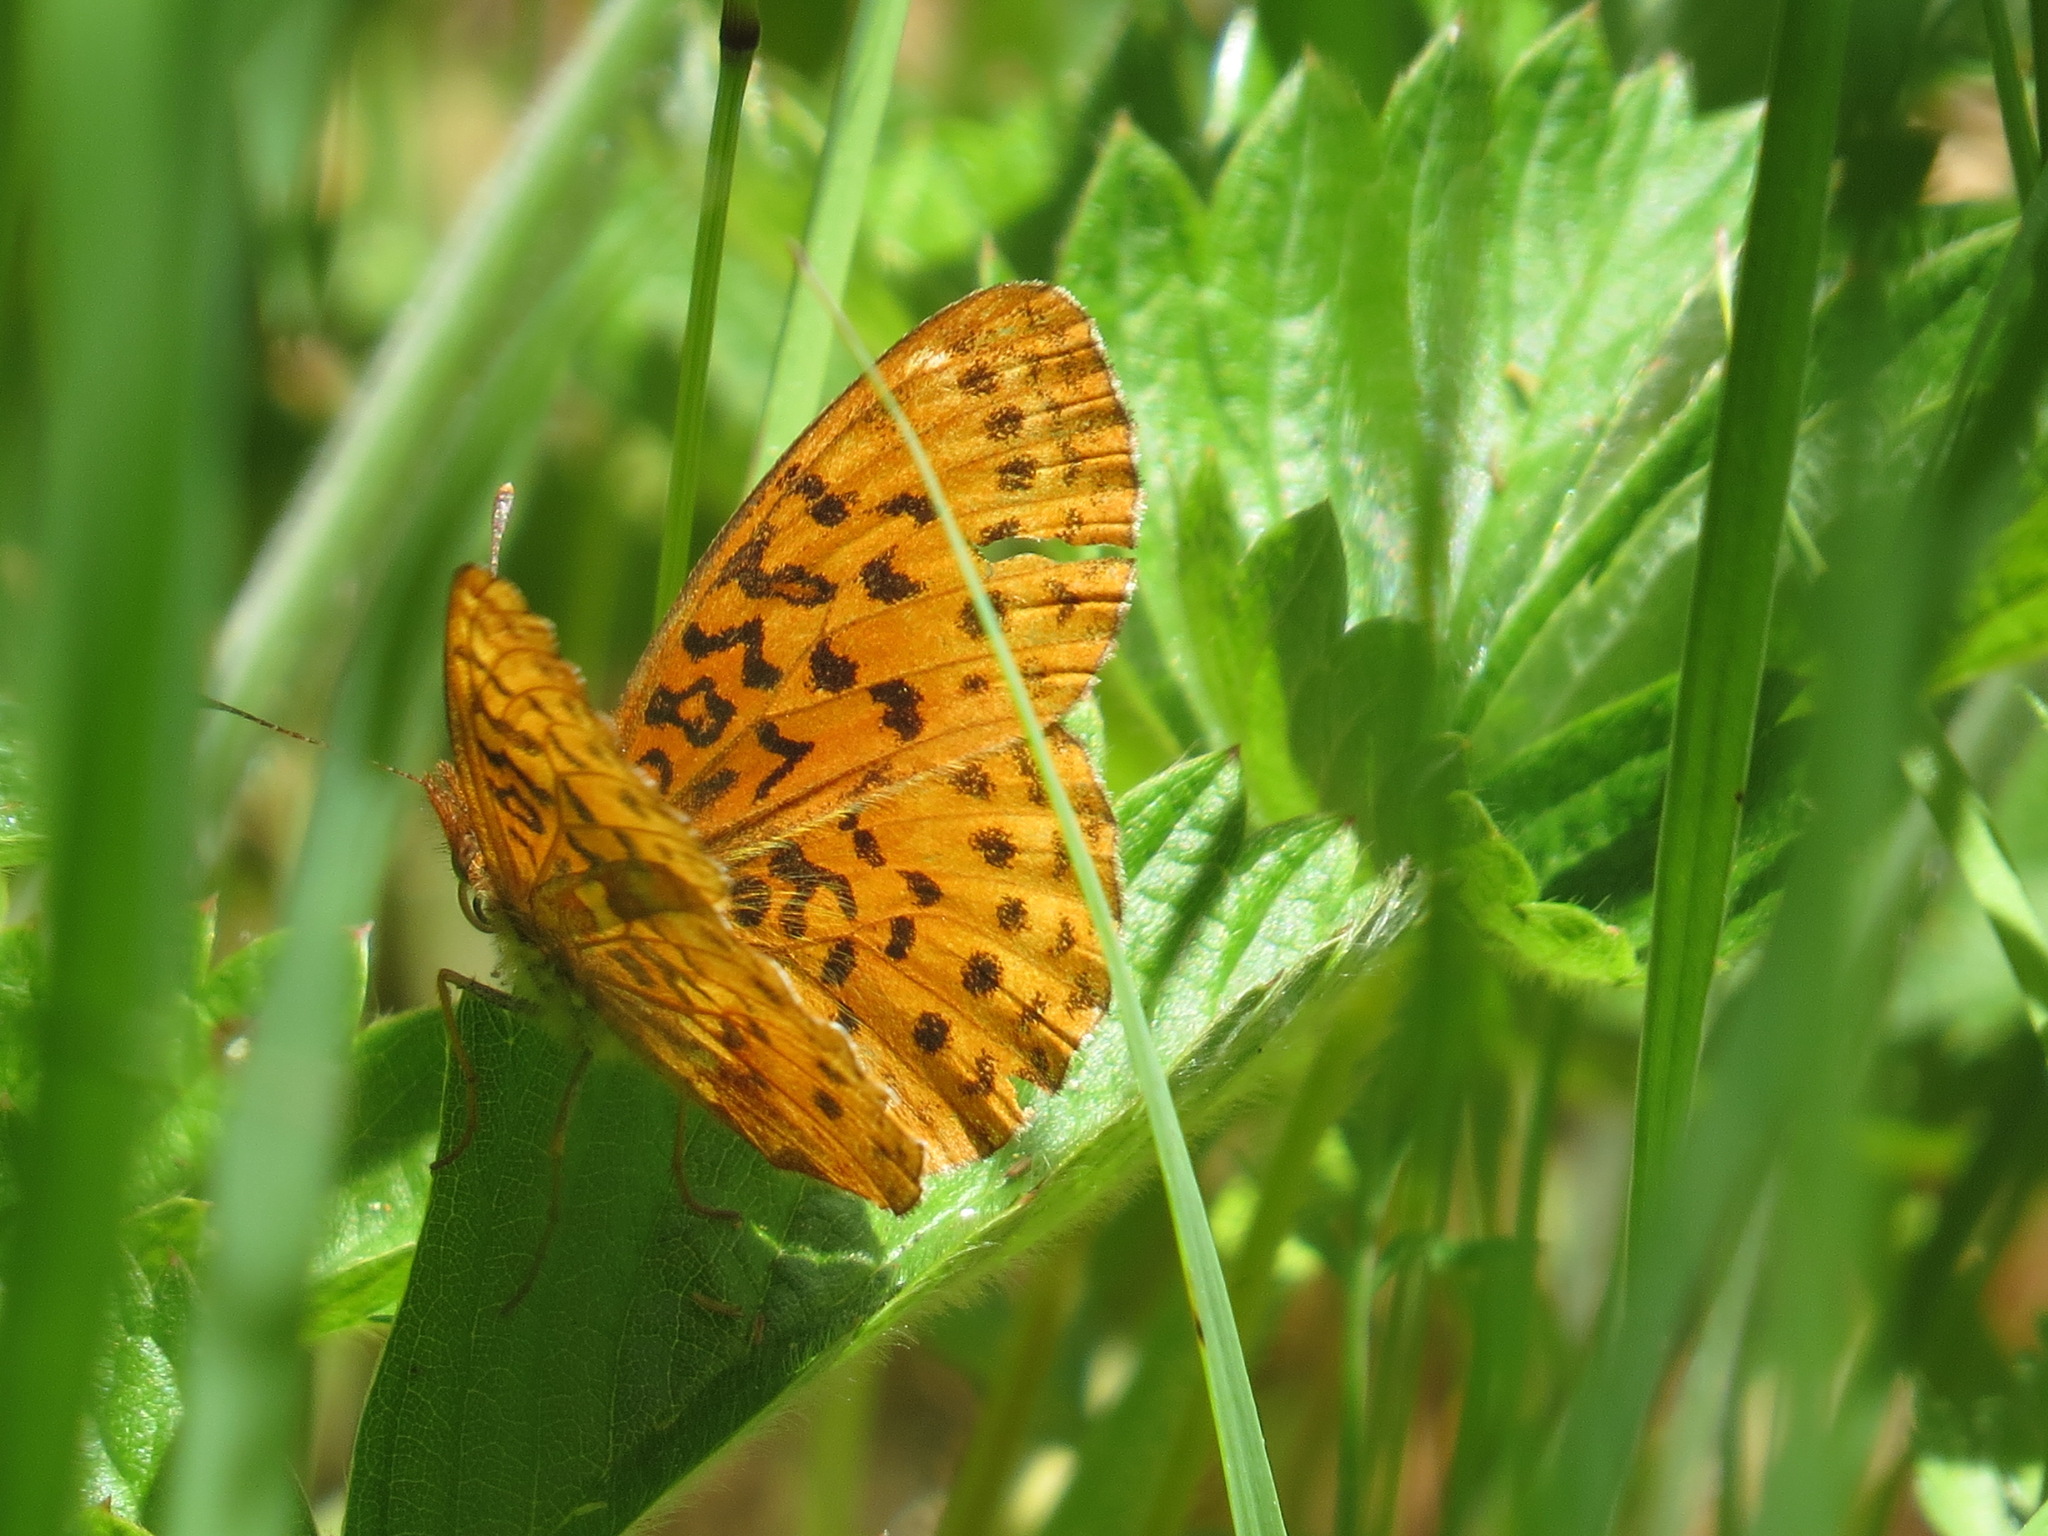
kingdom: Animalia
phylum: Arthropoda
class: Insecta
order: Lepidoptera
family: Nymphalidae
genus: Boloria
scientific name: Boloria epithore
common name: Pacific fritillary
